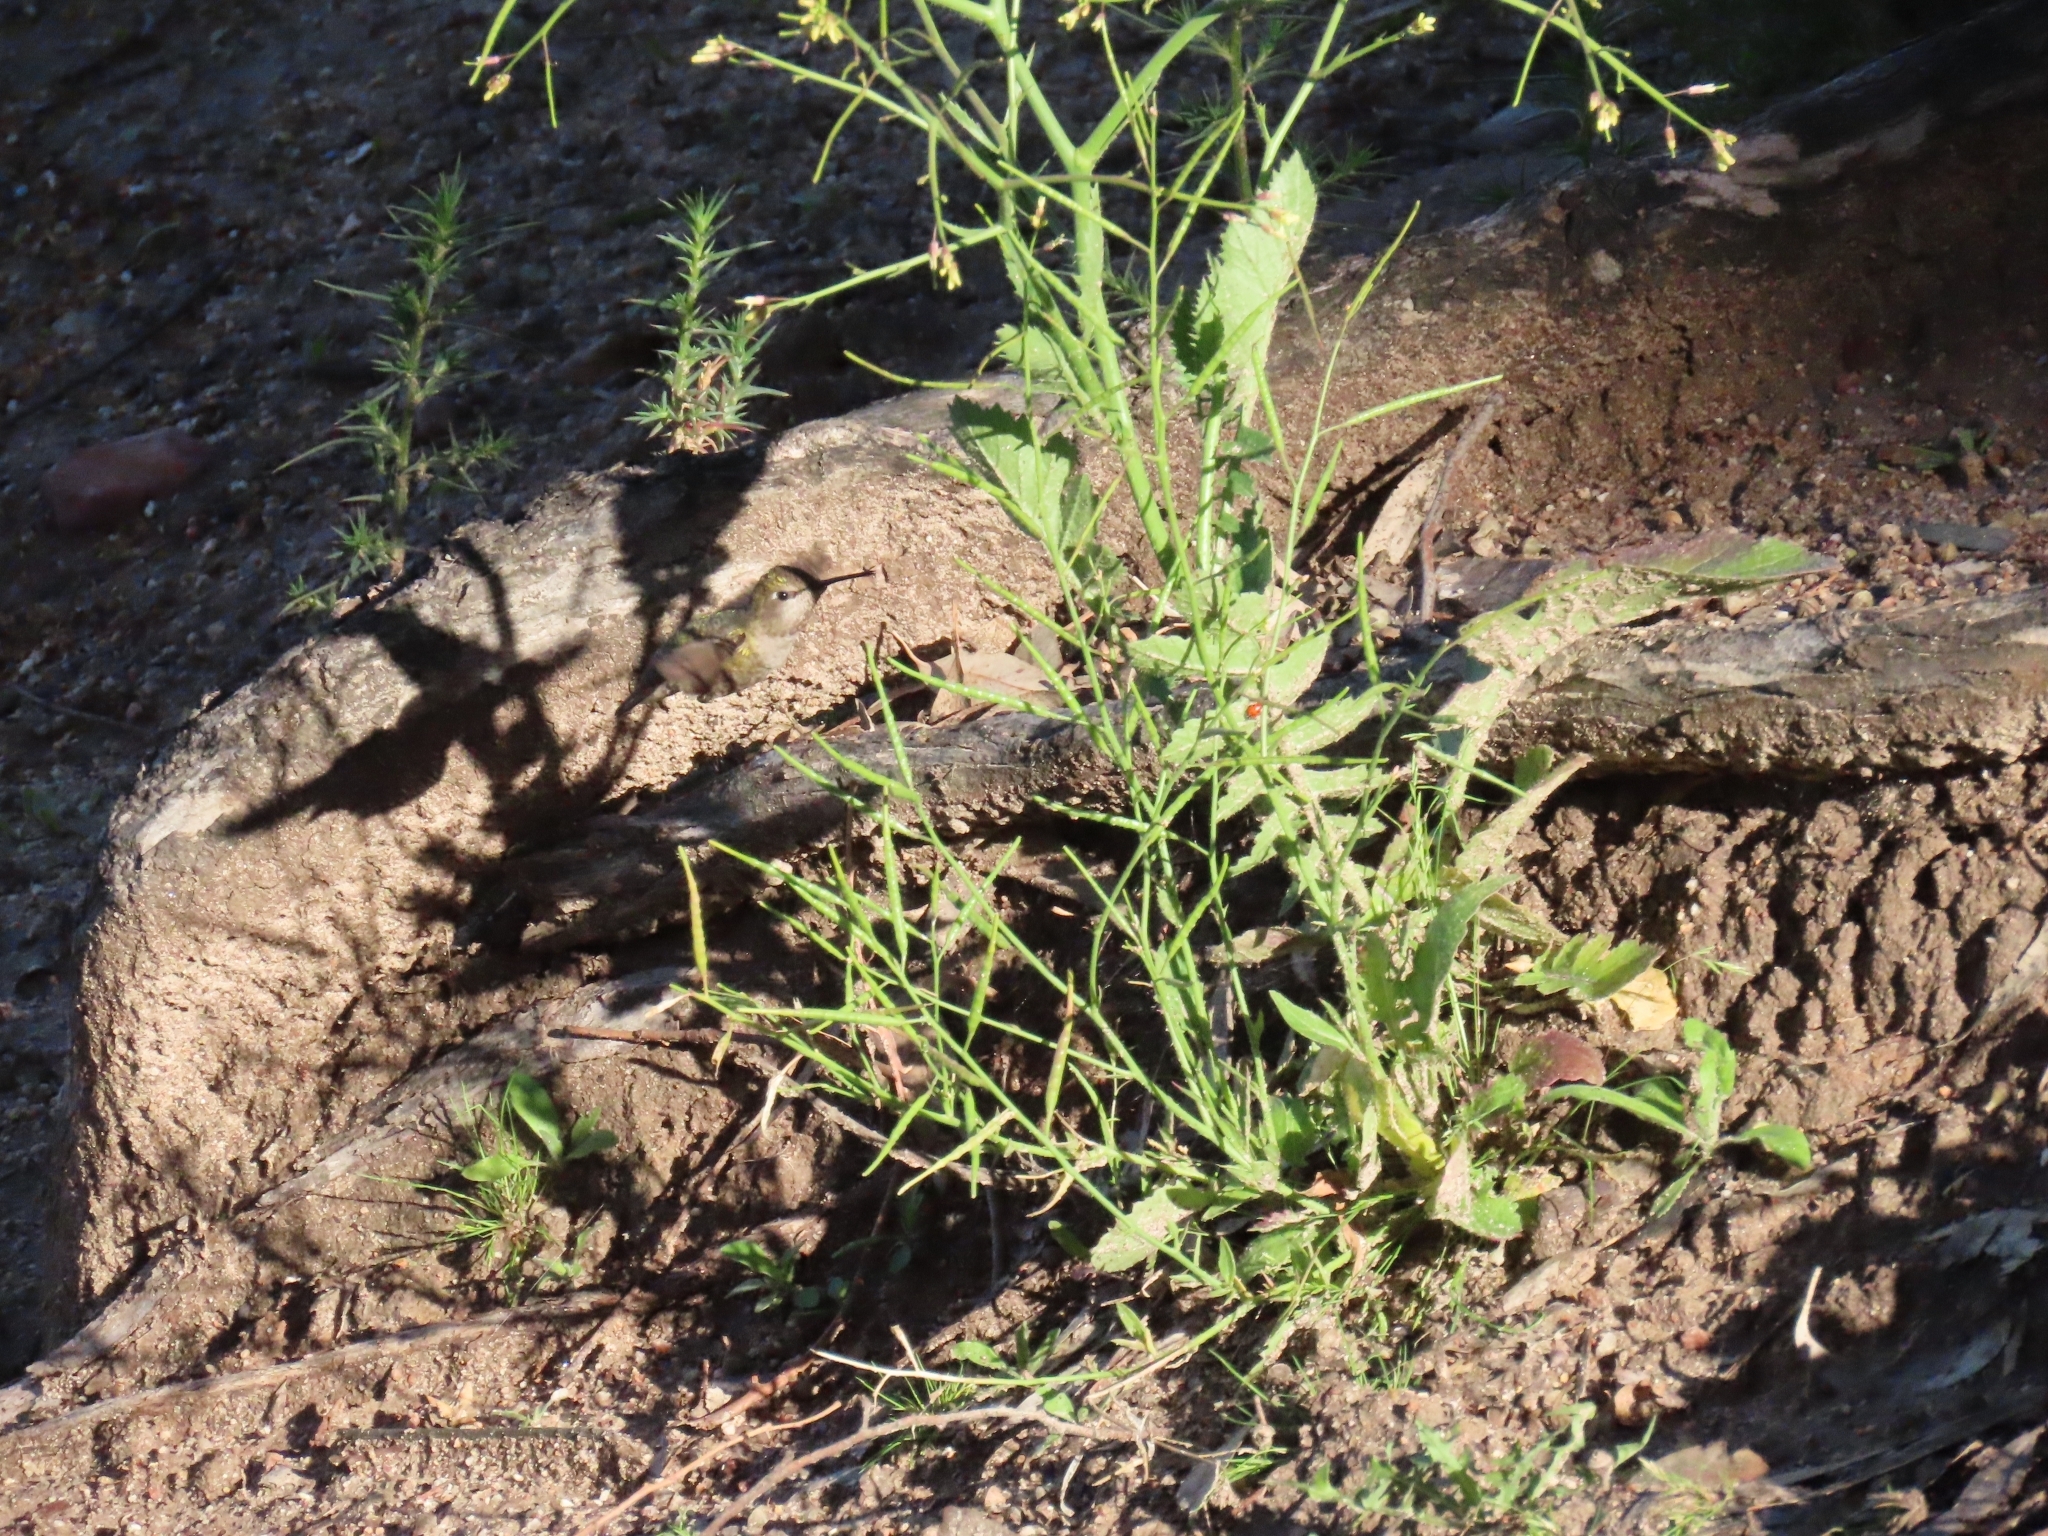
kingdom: Animalia
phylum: Chordata
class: Aves
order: Apodiformes
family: Trochilidae
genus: Calypte
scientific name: Calypte anna
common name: Anna's hummingbird
